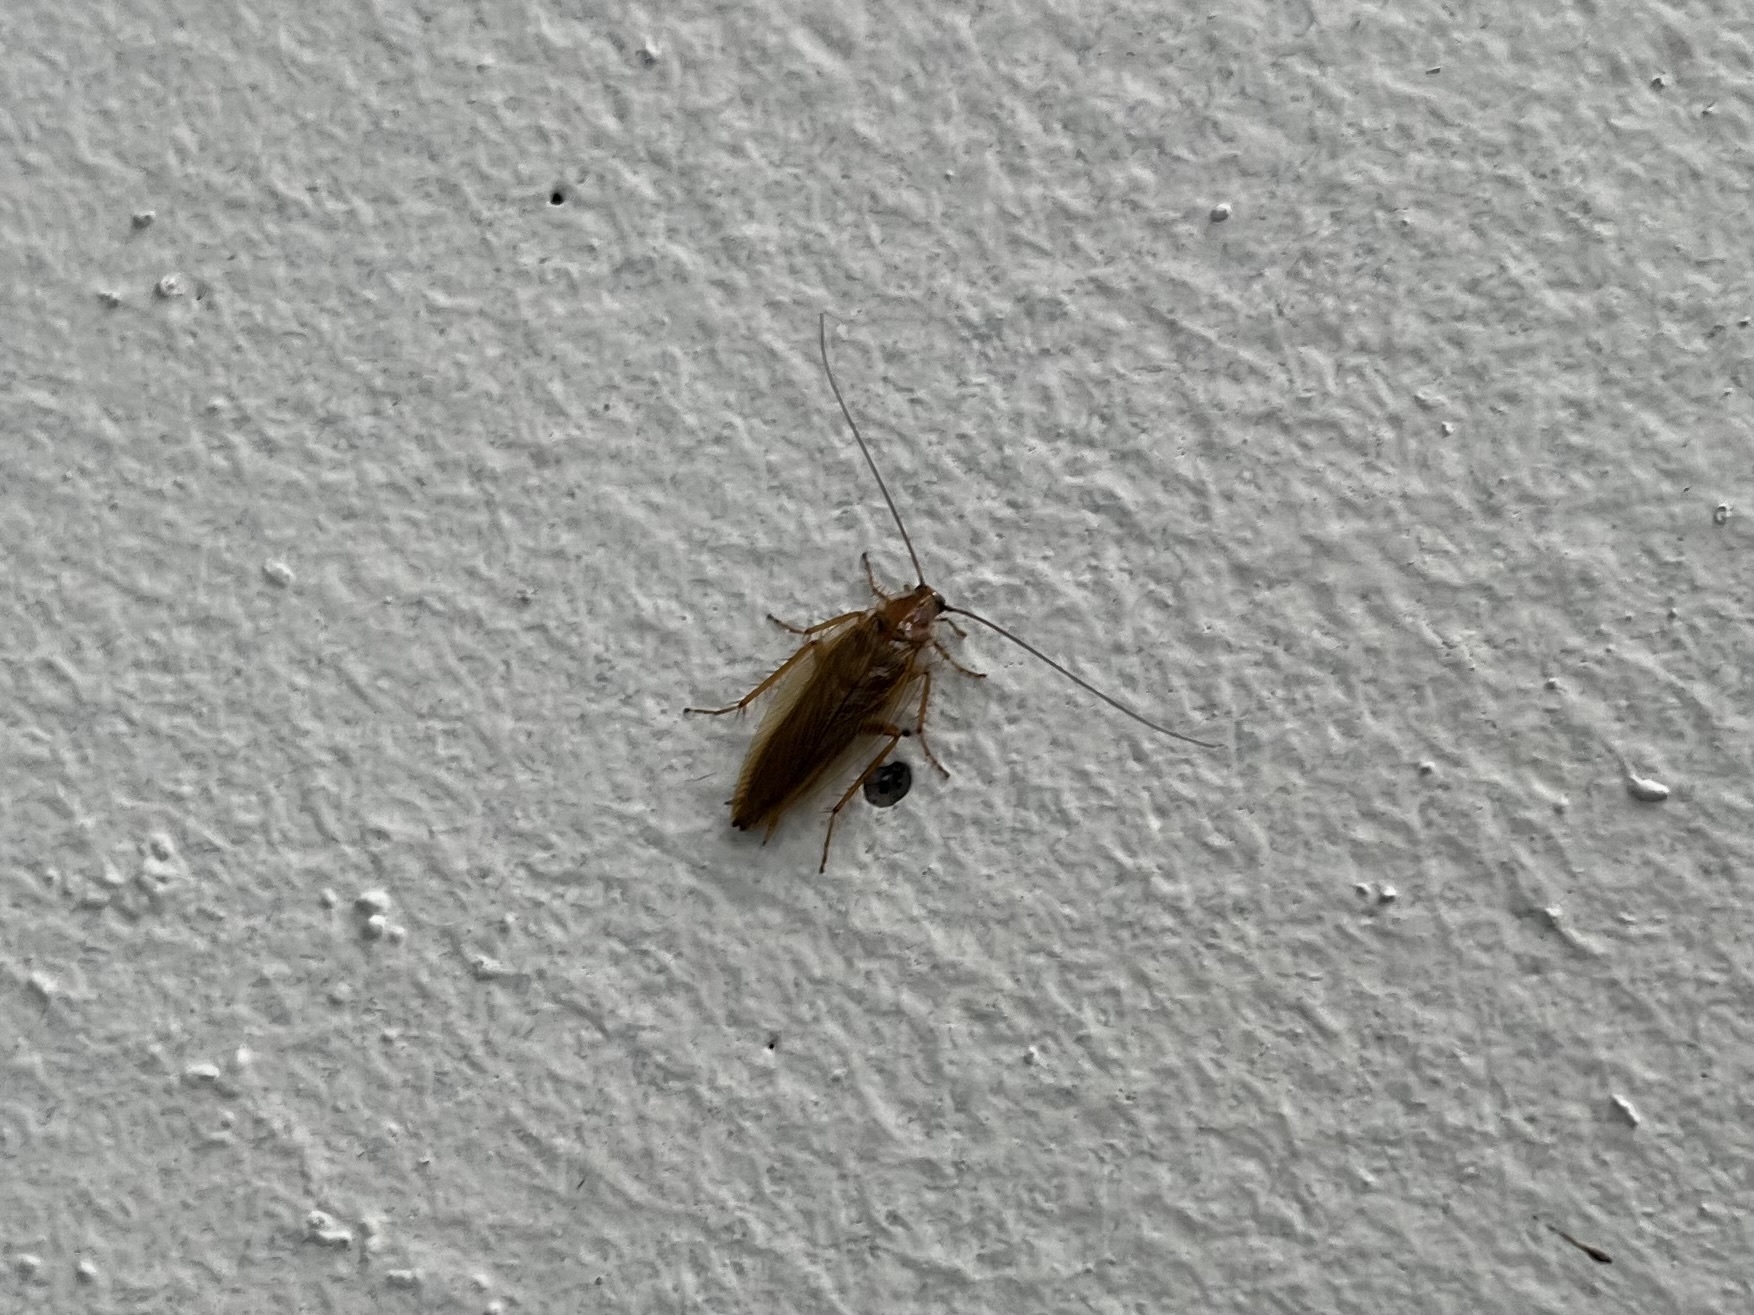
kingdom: Animalia
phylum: Arthropoda
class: Insecta
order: Blattodea
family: Ectobiidae
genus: Ectobius
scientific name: Ectobius vittiventris
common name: Garden cockroach
